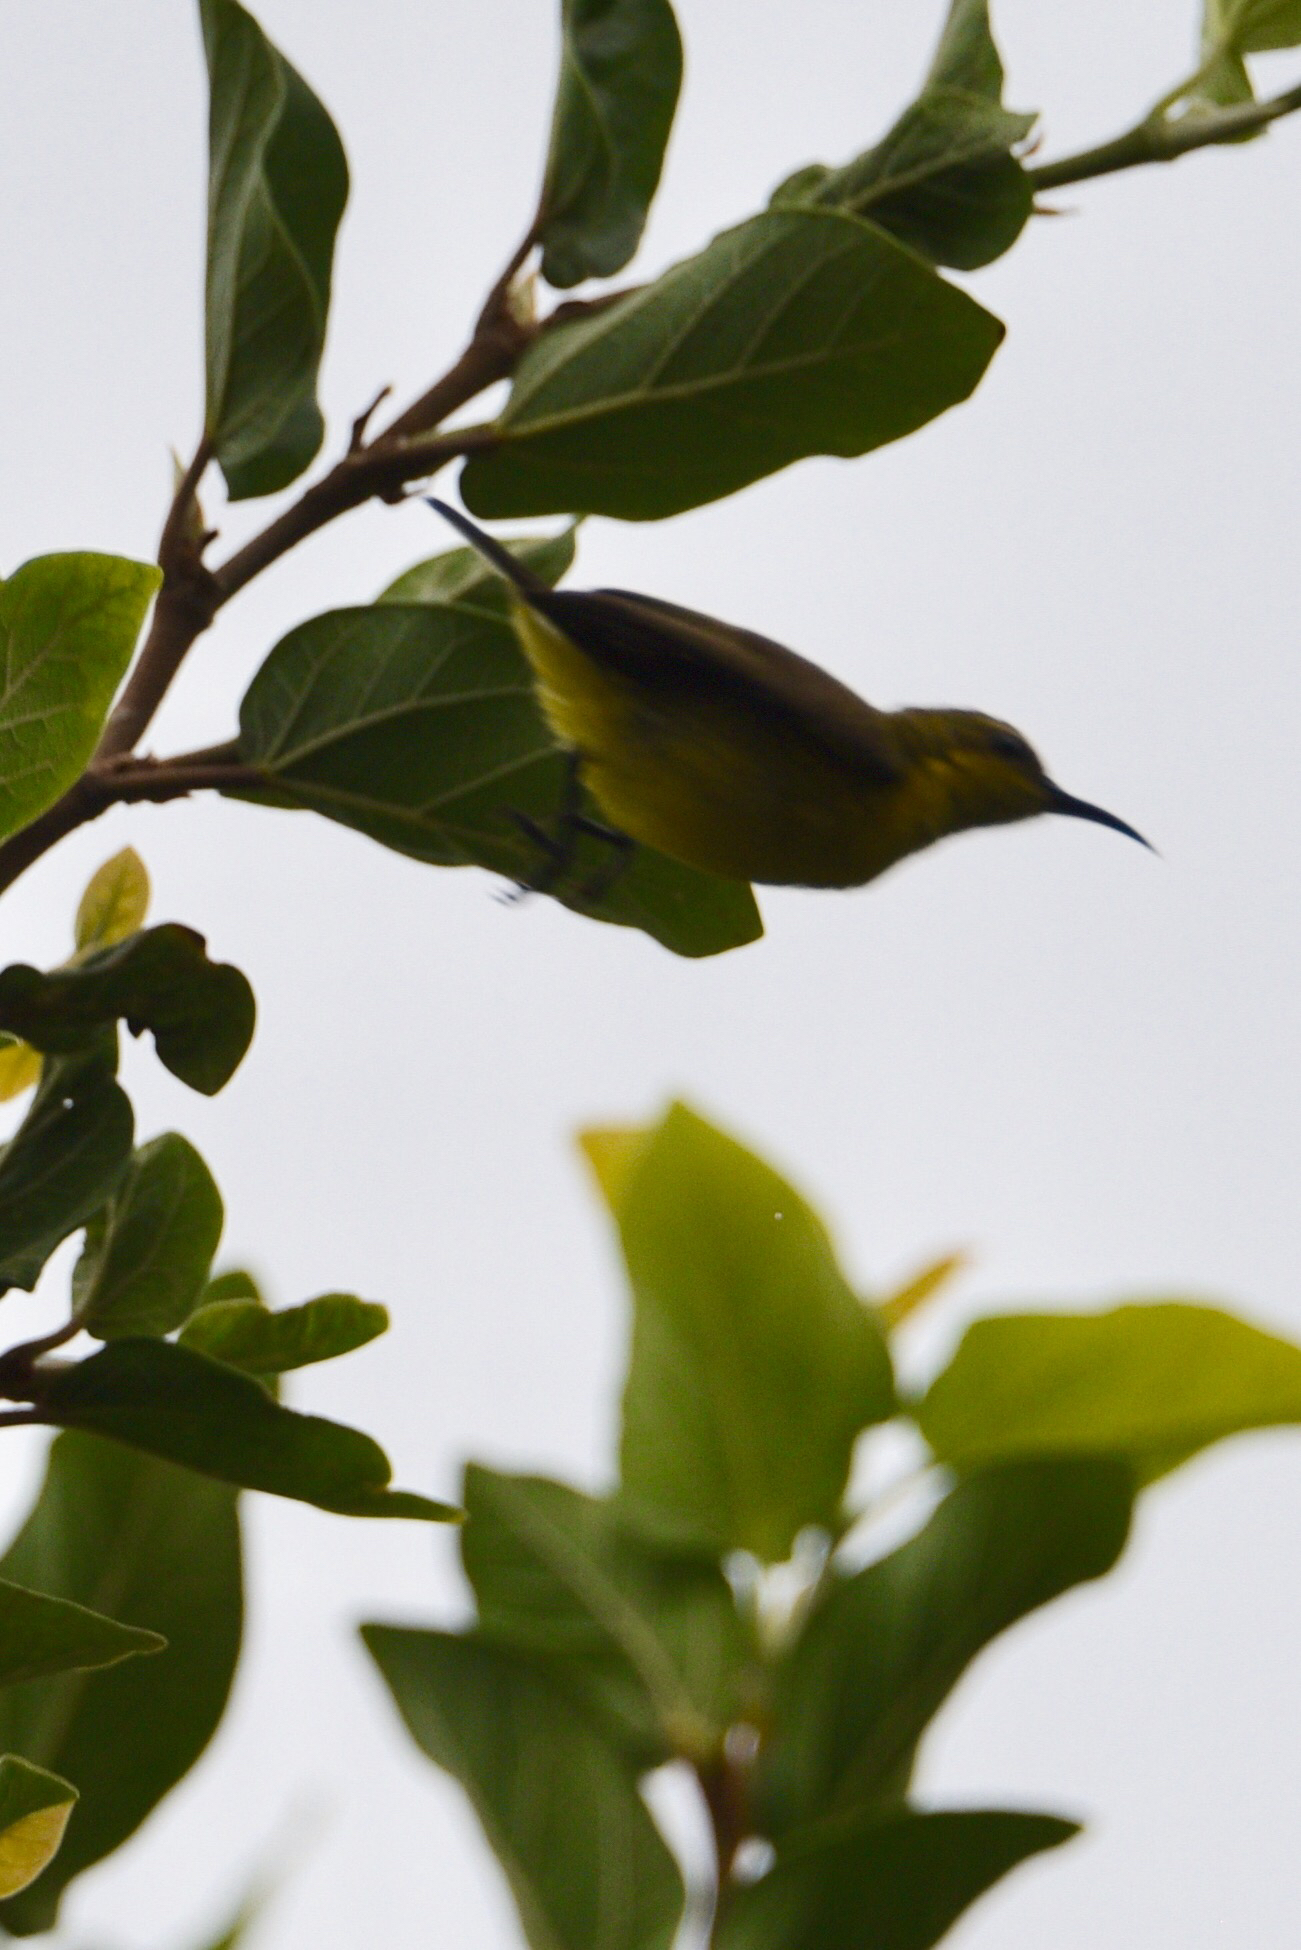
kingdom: Animalia
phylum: Chordata
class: Aves
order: Passeriformes
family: Nectariniidae
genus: Cinnyris
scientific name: Cinnyris
